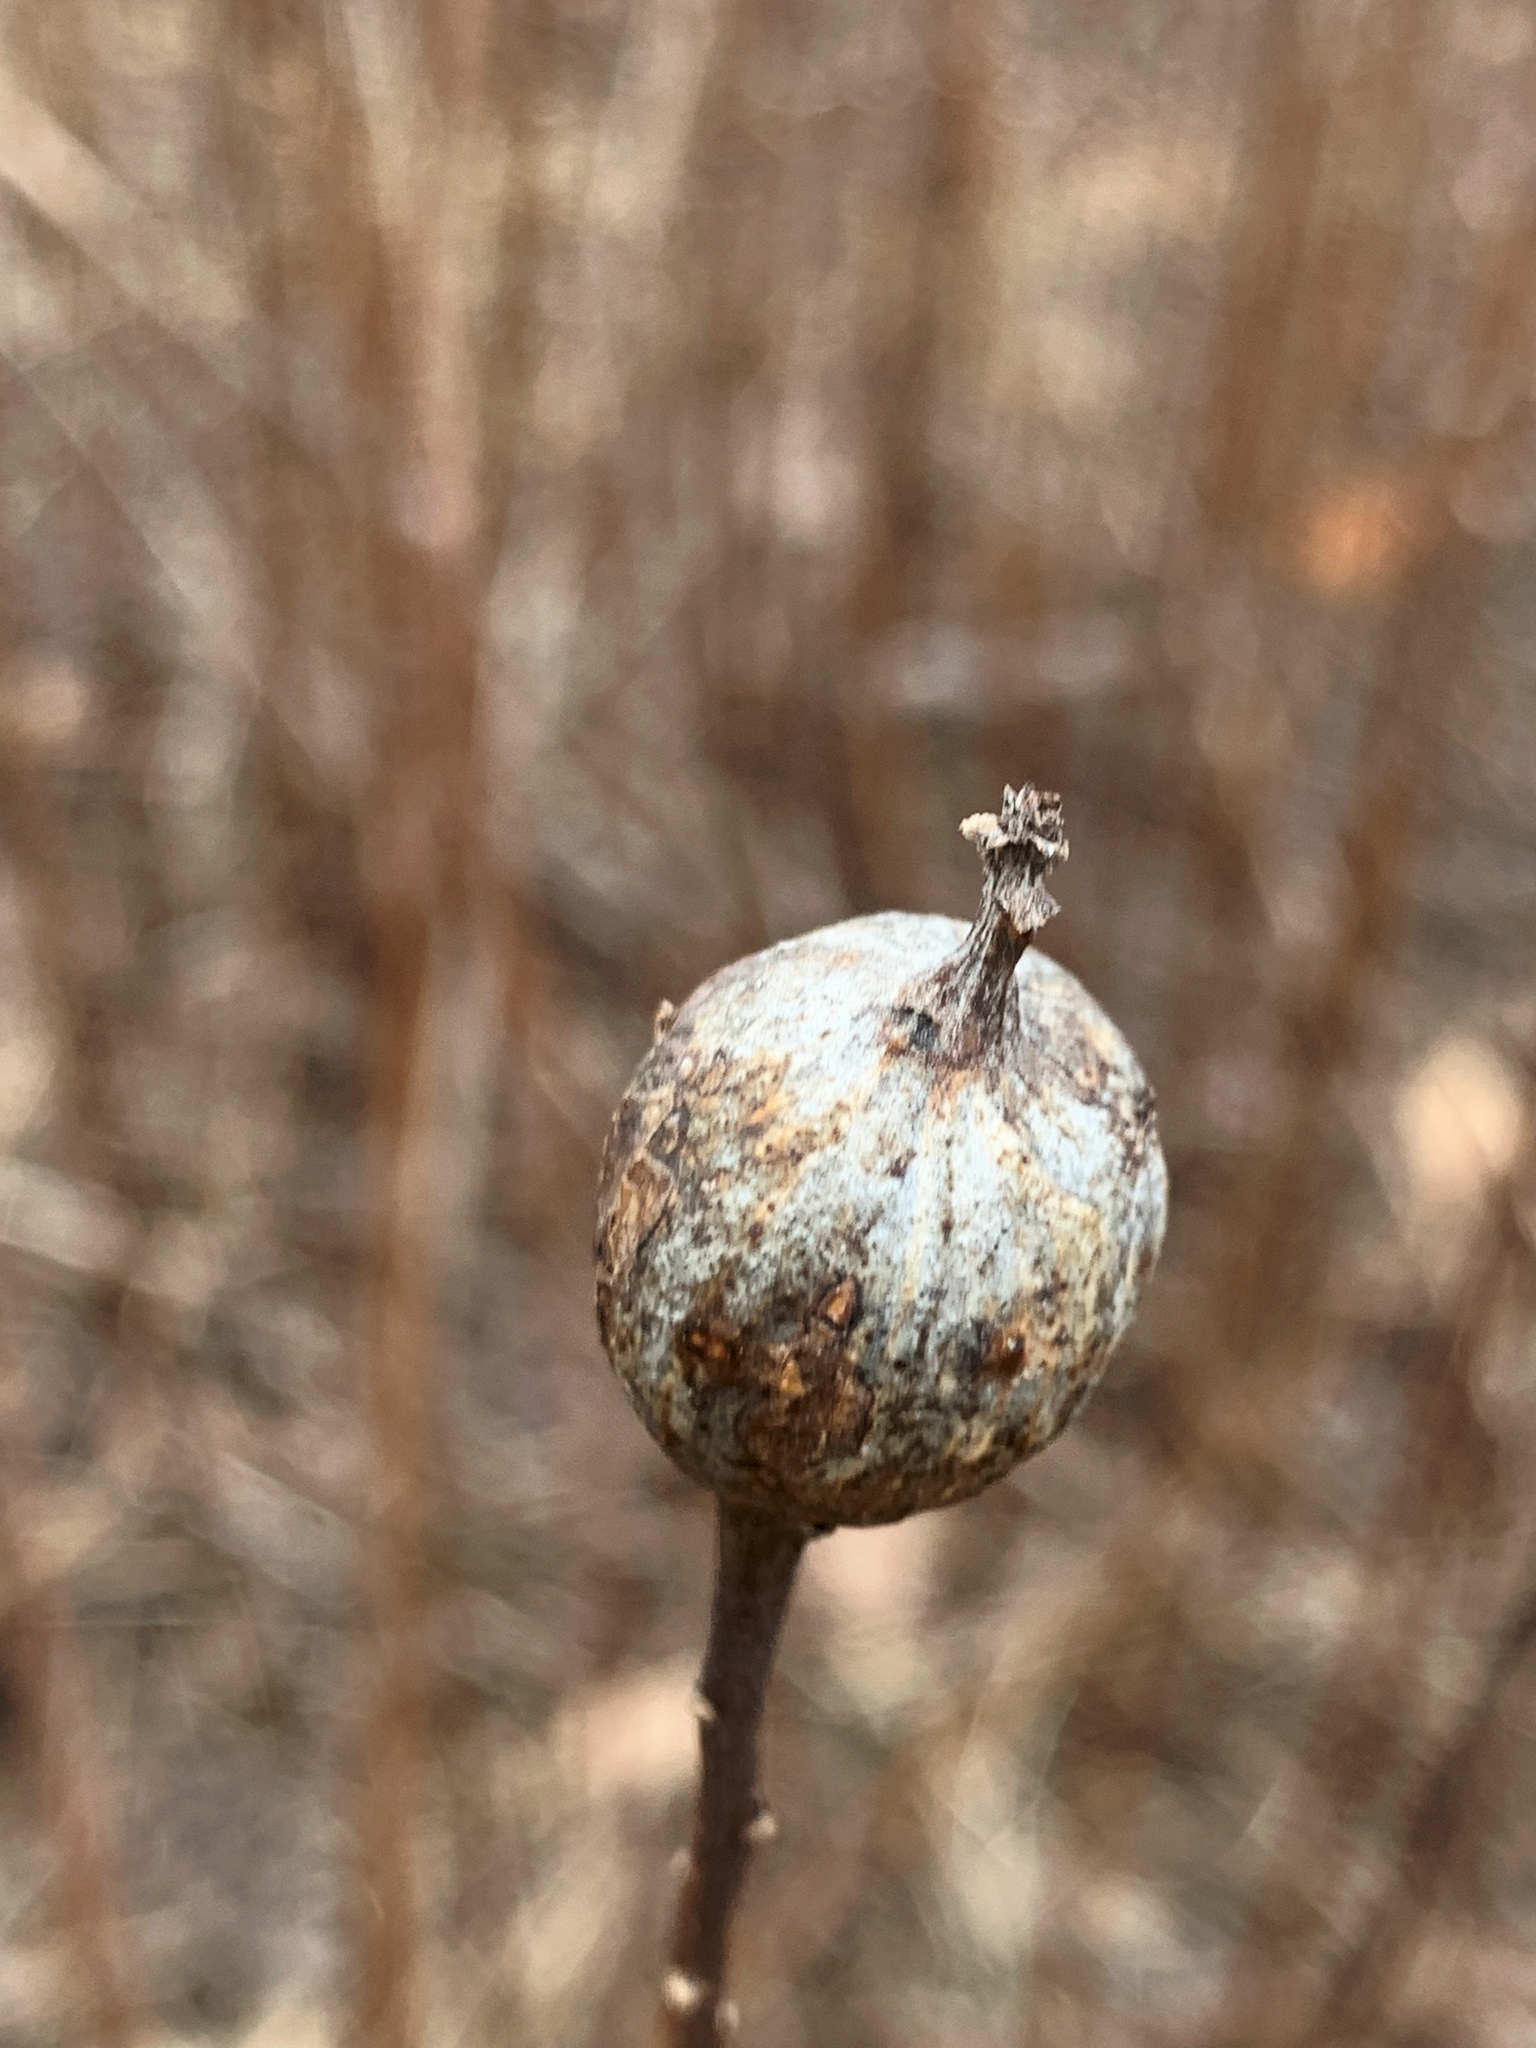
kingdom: Animalia
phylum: Arthropoda
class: Insecta
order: Diptera
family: Tephritidae
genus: Eurosta
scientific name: Eurosta solidaginis
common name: Goldenrod gall fly
